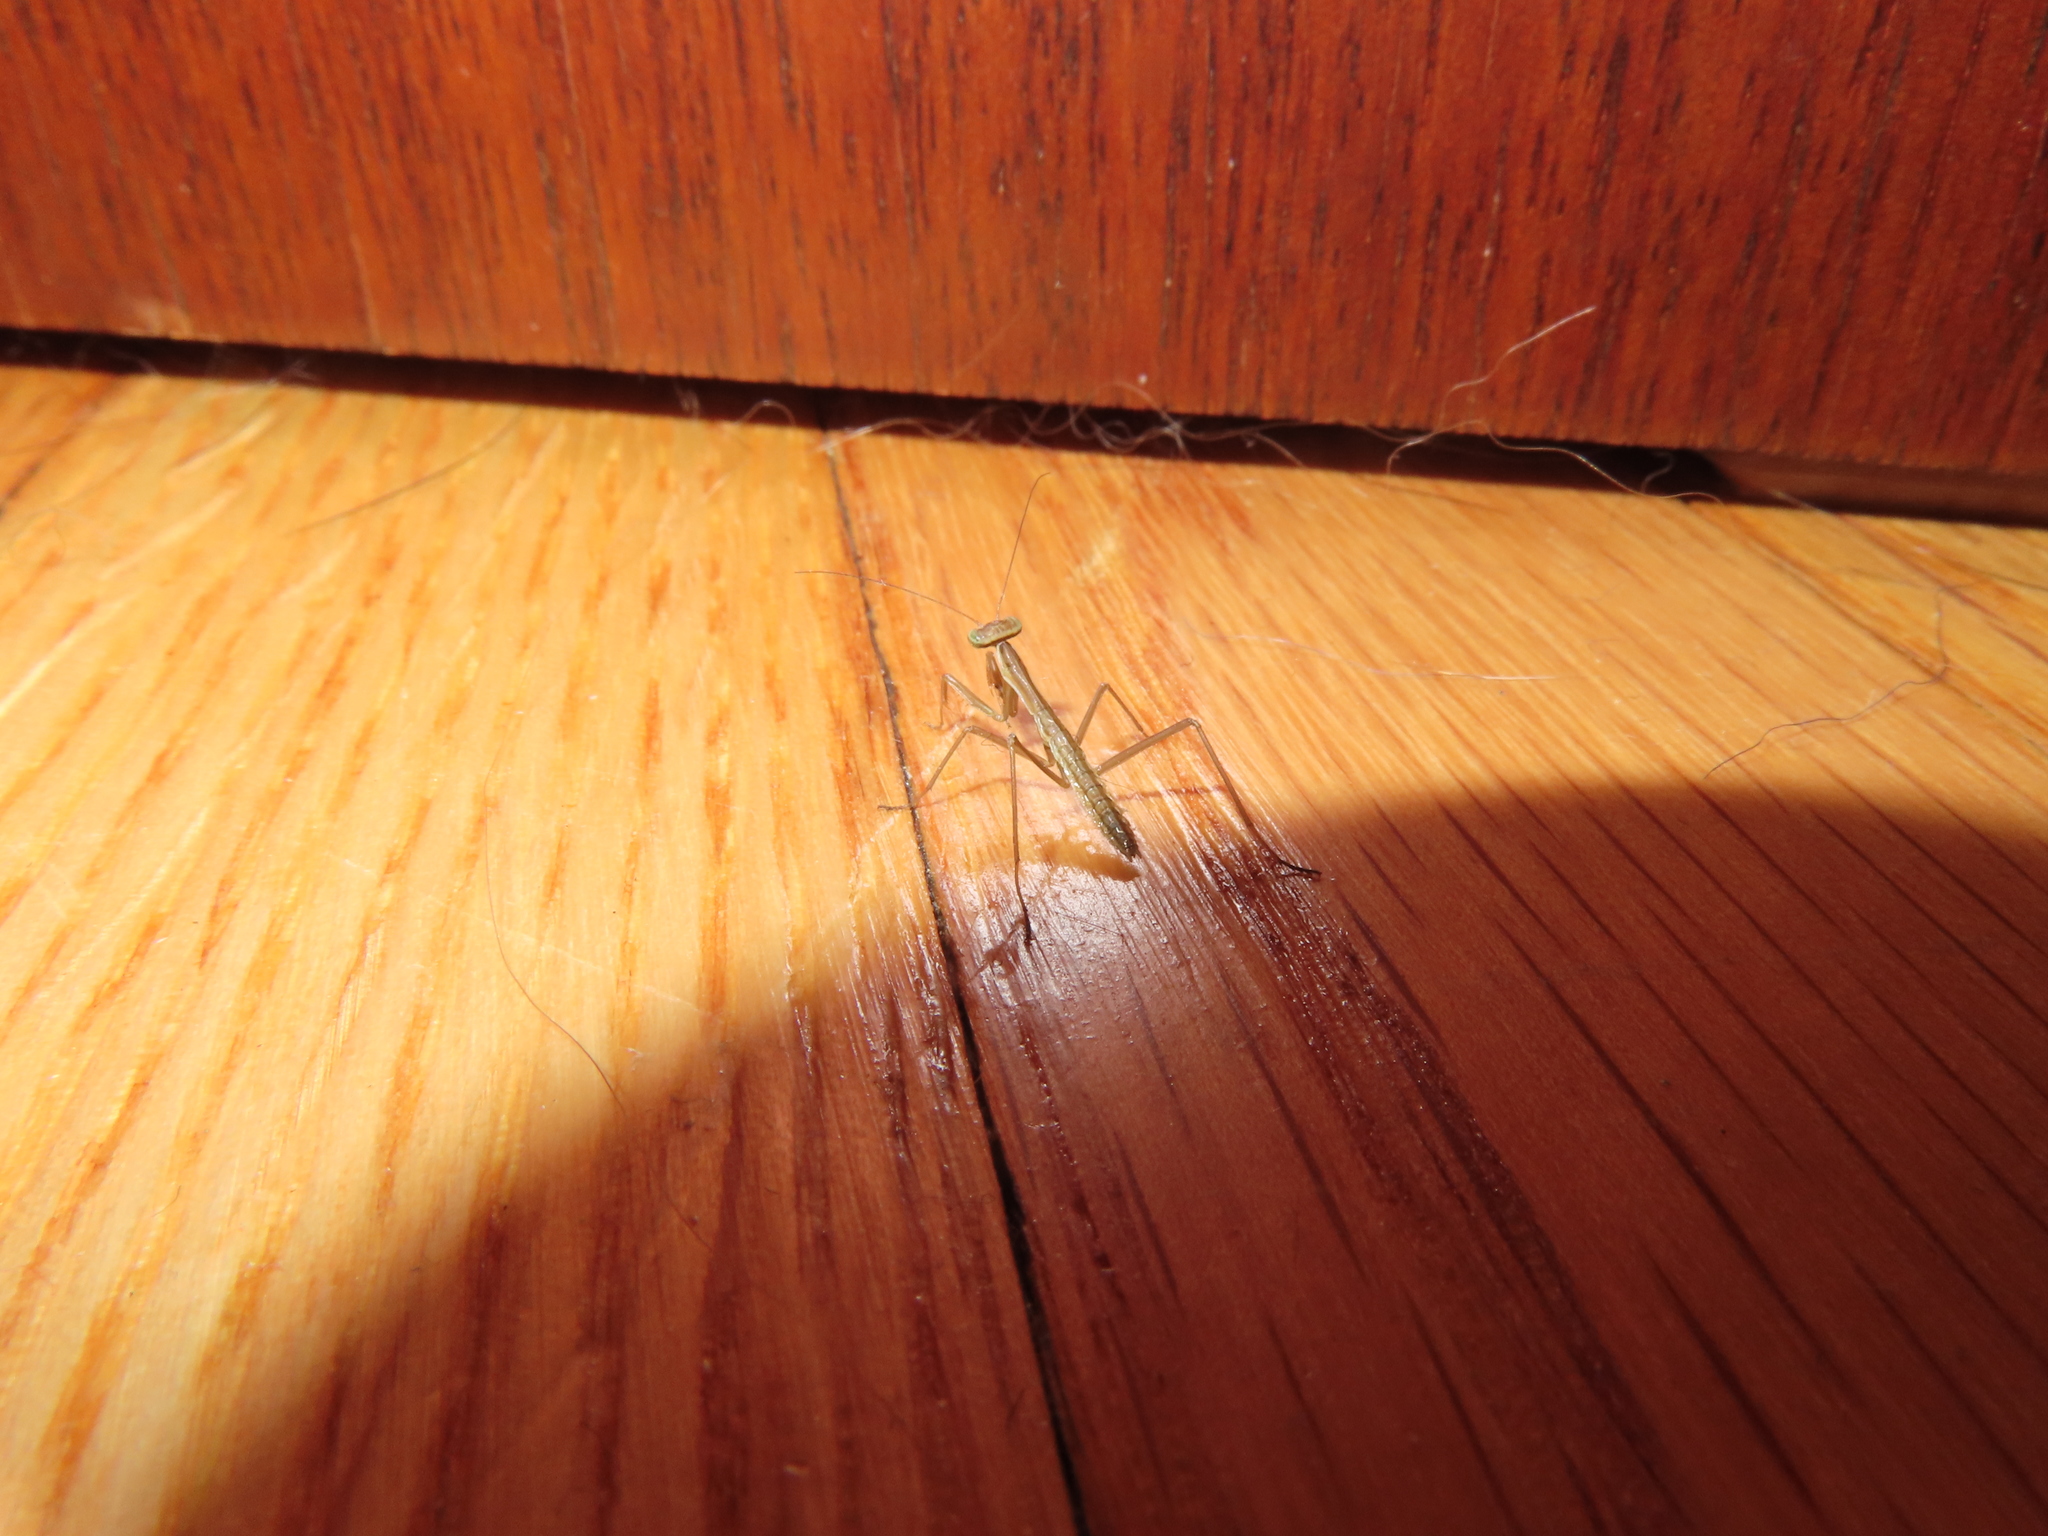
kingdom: Animalia
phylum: Arthropoda
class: Insecta
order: Mantodea
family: Mantidae
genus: Tenodera
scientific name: Tenodera sinensis
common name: Chinese mantis
